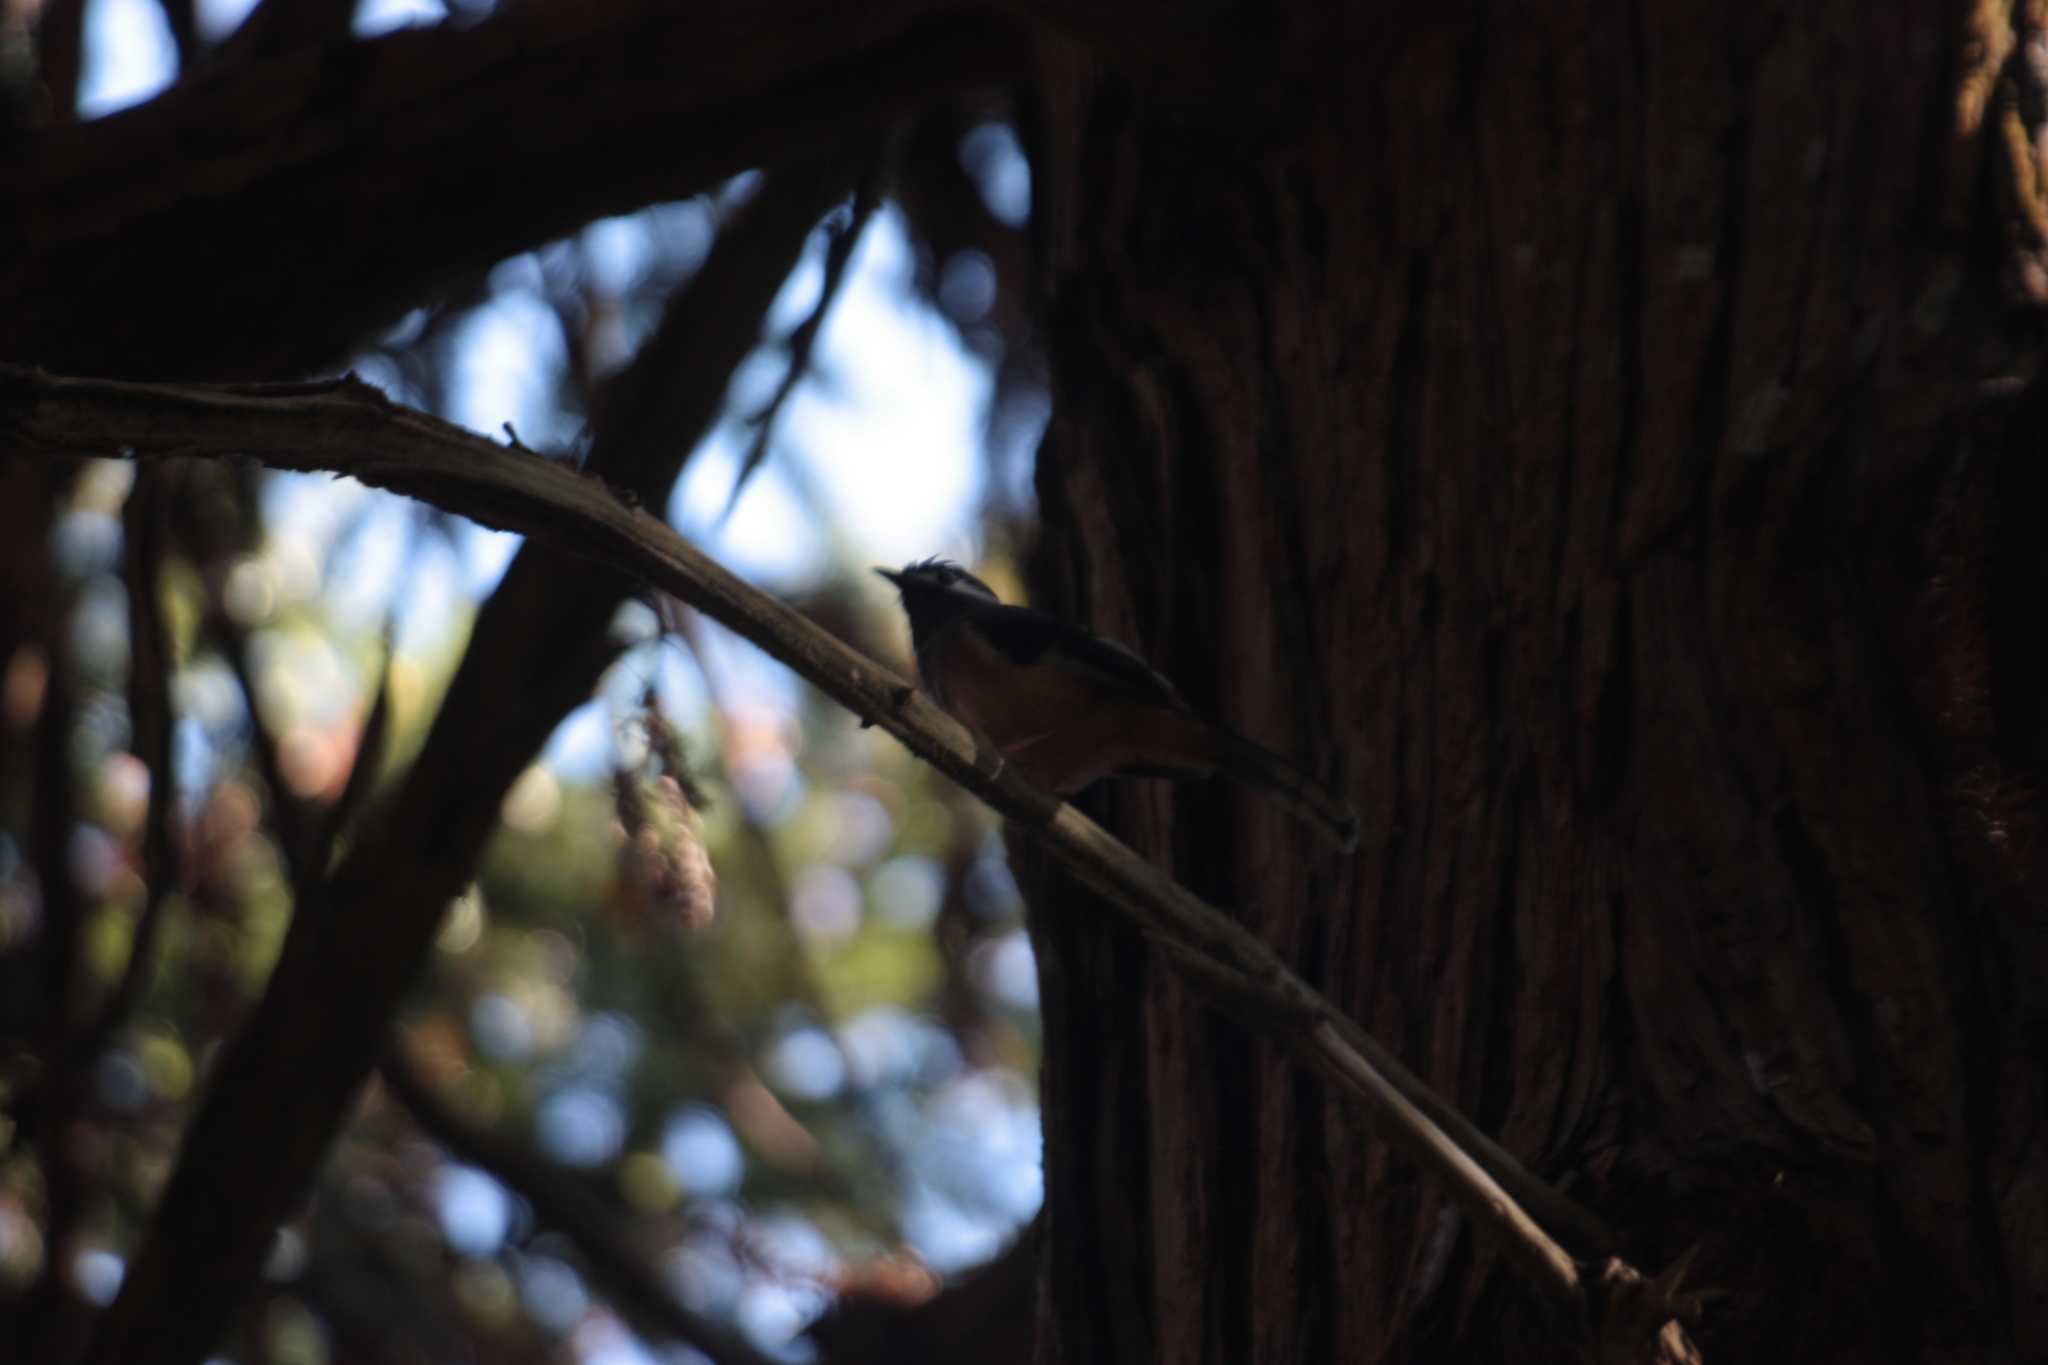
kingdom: Animalia
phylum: Chordata
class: Aves
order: Passeriformes
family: Leiothrichidae
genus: Heterophasia
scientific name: Heterophasia auricularis
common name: White-eared sibia
